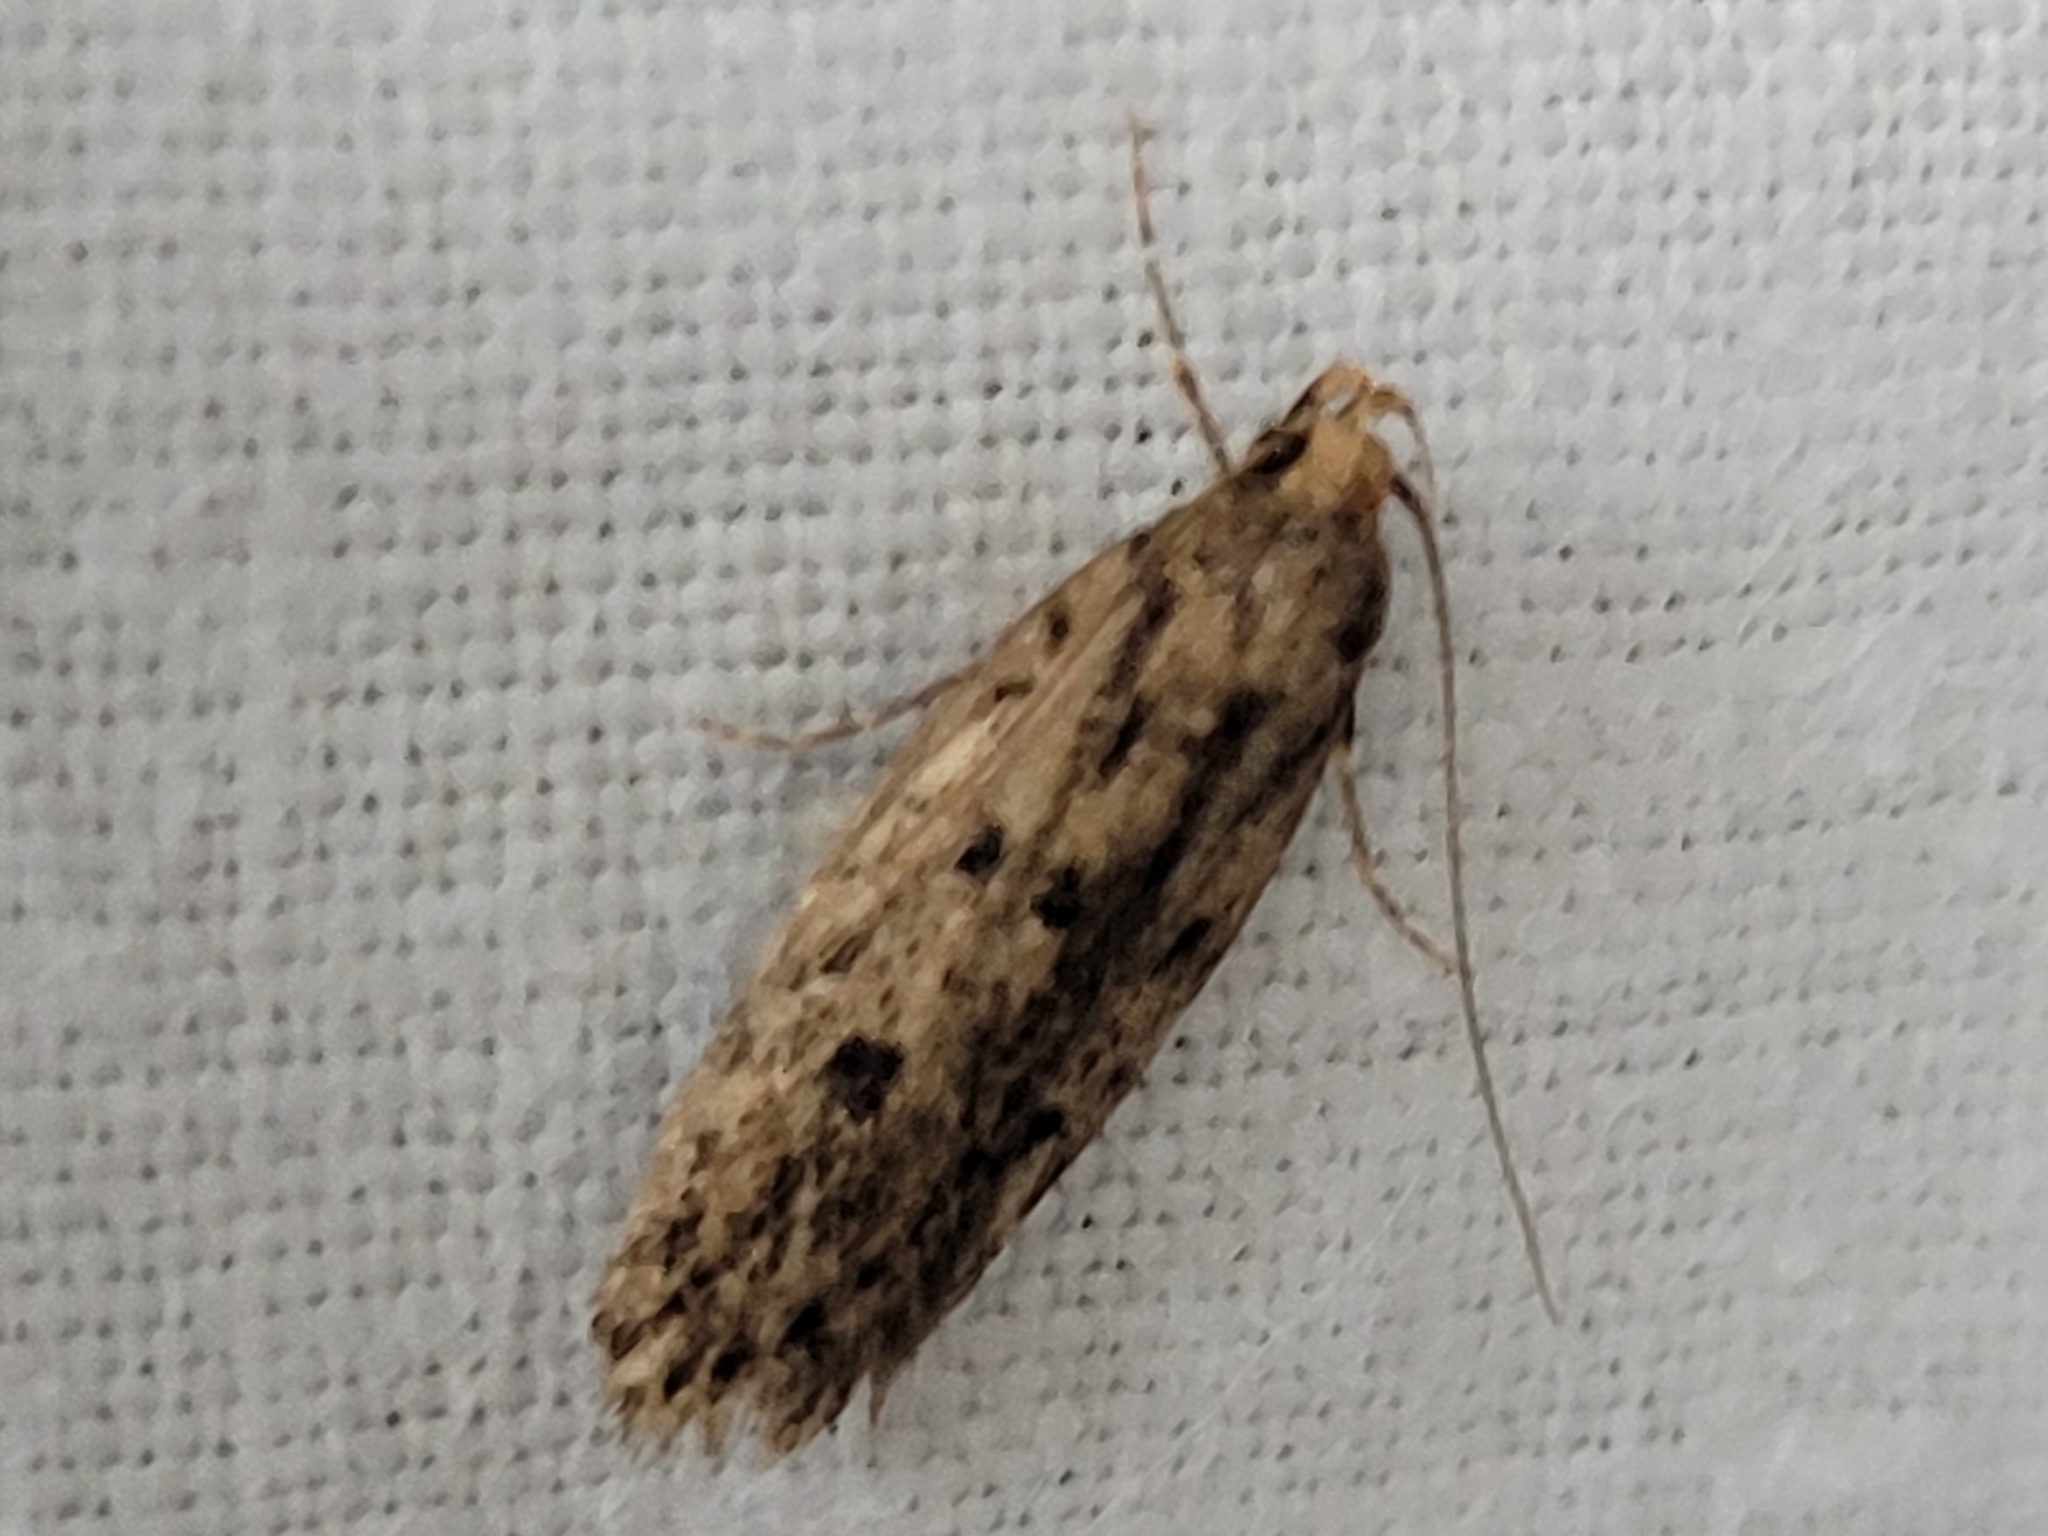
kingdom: Animalia
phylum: Arthropoda
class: Insecta
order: Lepidoptera
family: Oecophoridae
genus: Hofmannophila
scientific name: Hofmannophila pseudospretella
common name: Brown house moth
